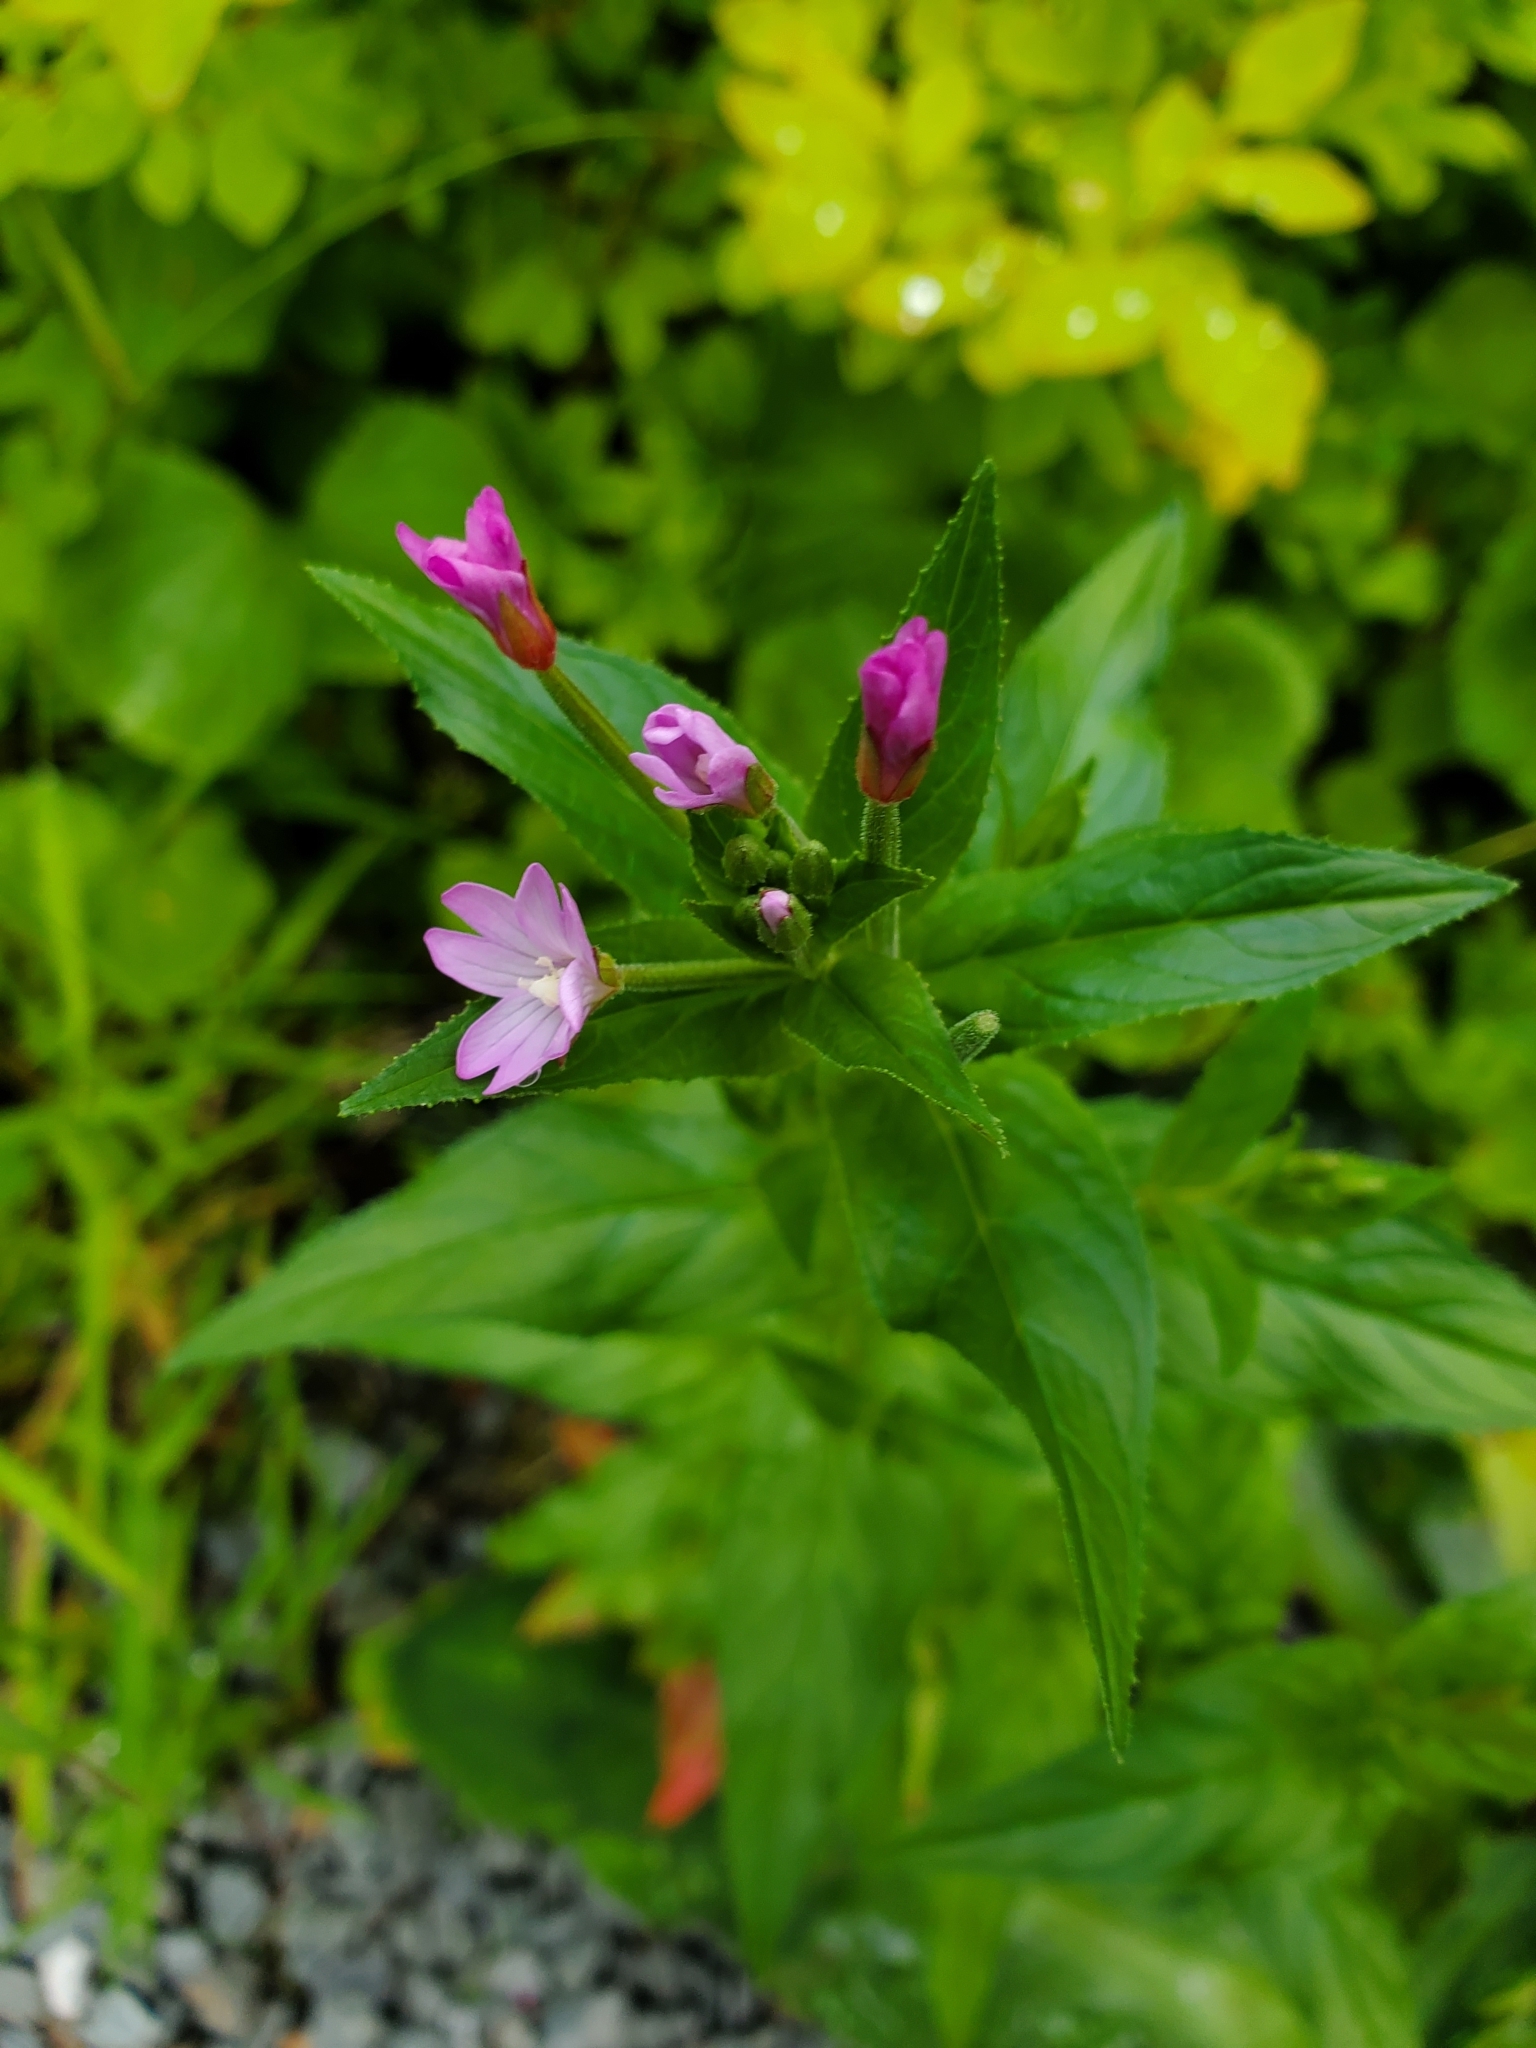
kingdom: Plantae
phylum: Tracheophyta
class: Magnoliopsida
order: Myrtales
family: Onagraceae
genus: Epilobium
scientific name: Epilobium ciliatum
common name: American willowherb
